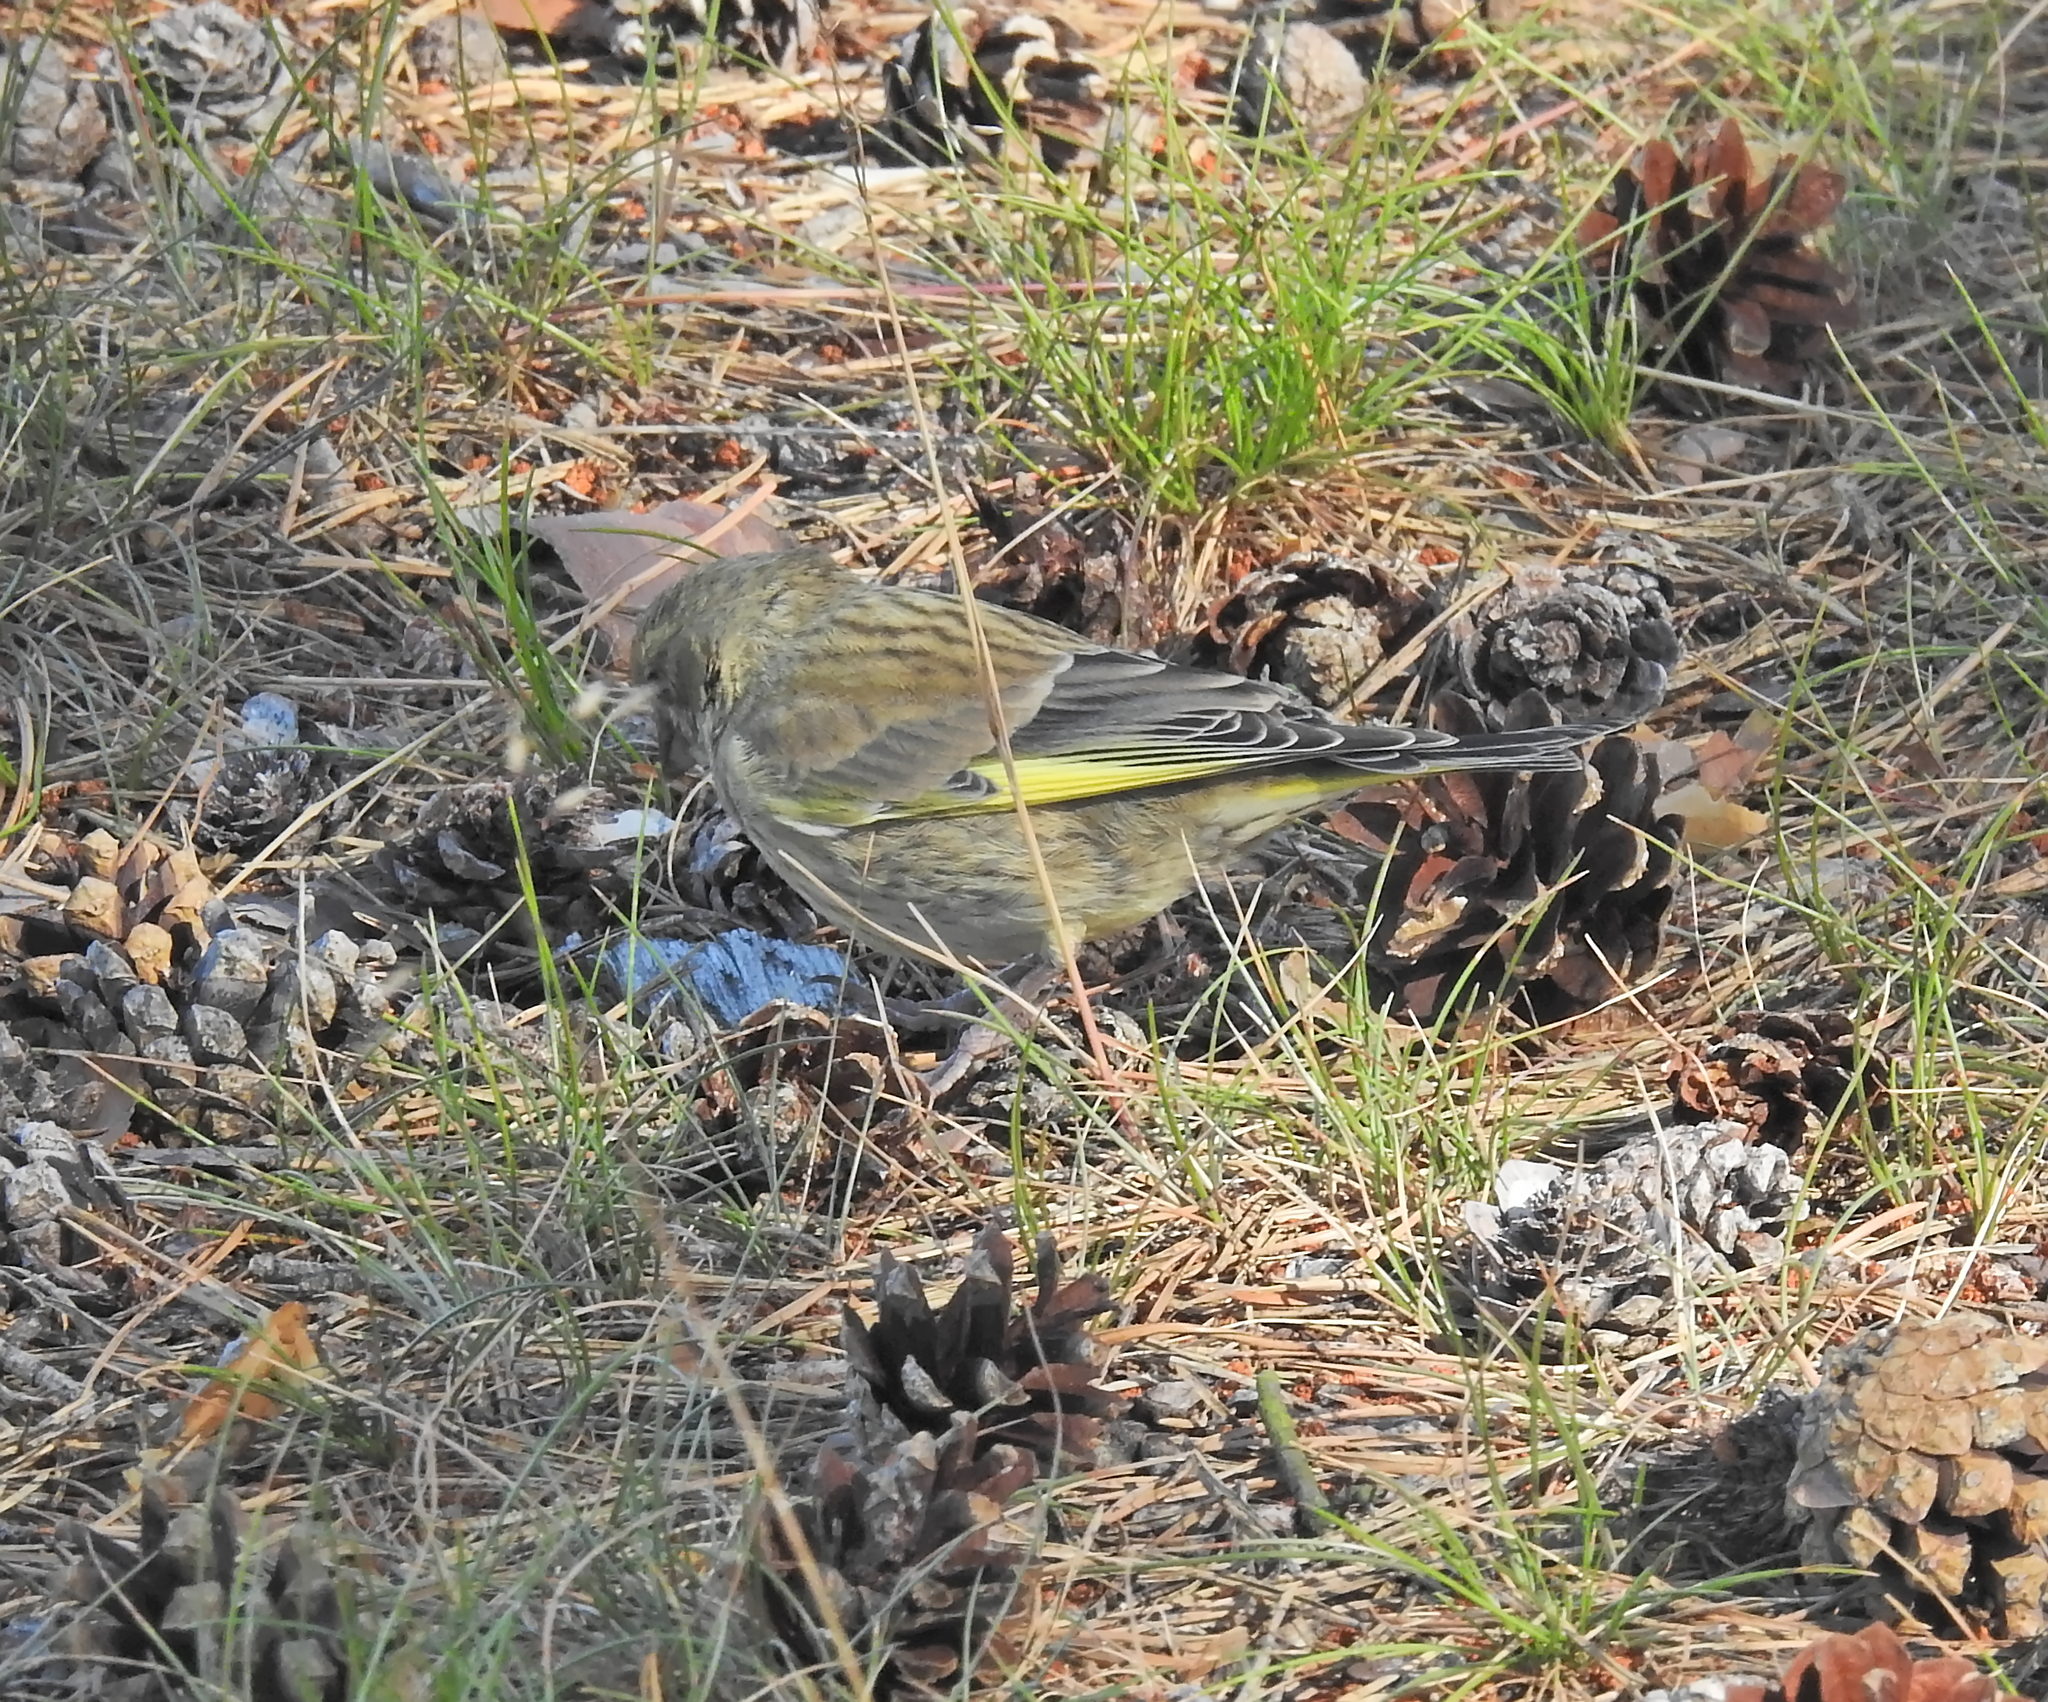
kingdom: Plantae
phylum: Tracheophyta
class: Liliopsida
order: Poales
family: Poaceae
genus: Chloris
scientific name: Chloris chloris
